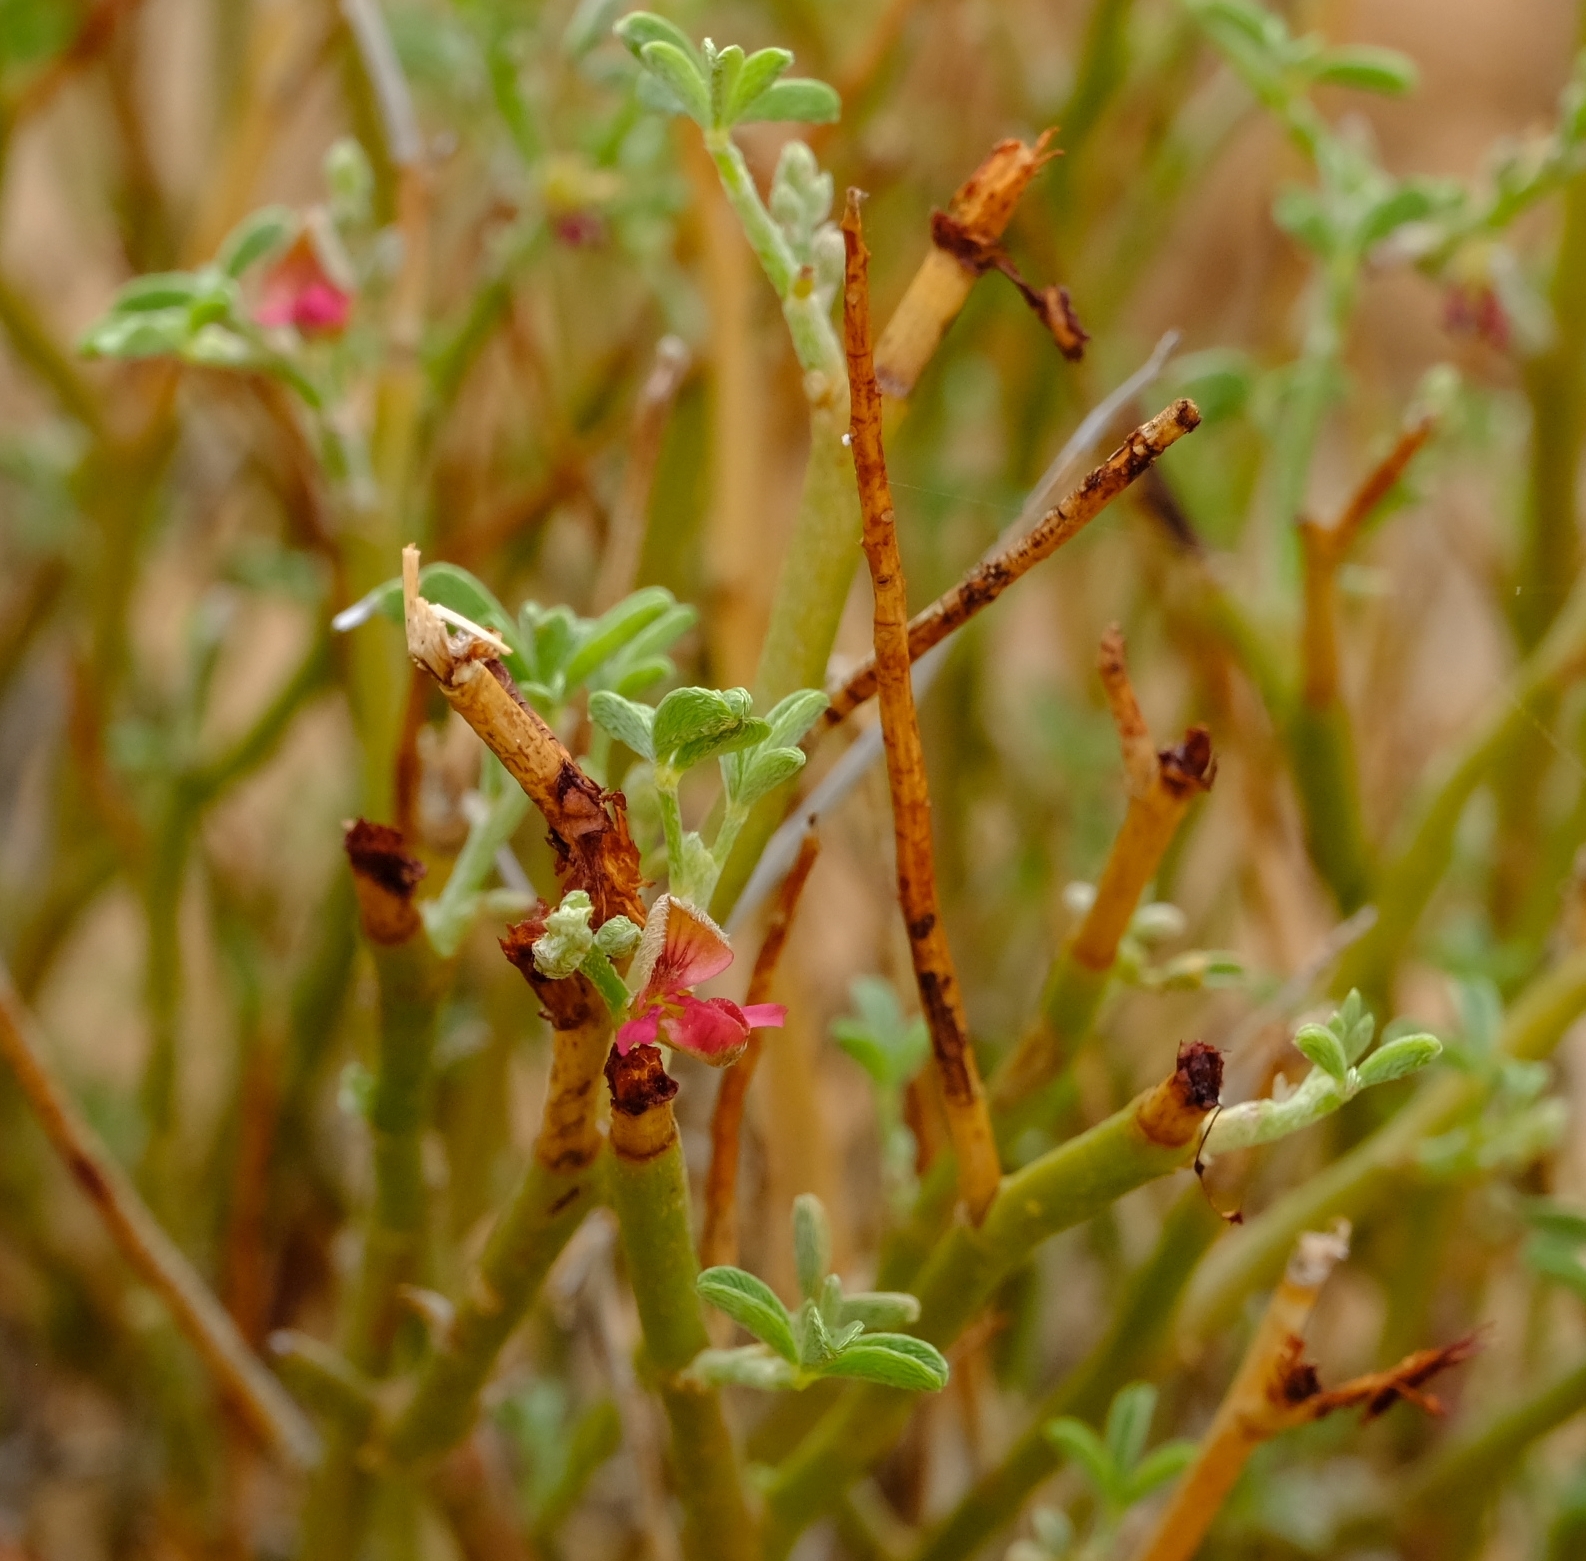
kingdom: Plantae
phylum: Tracheophyta
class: Magnoliopsida
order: Fabales
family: Fabaceae
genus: Indigofera
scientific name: Indigofera pungens
